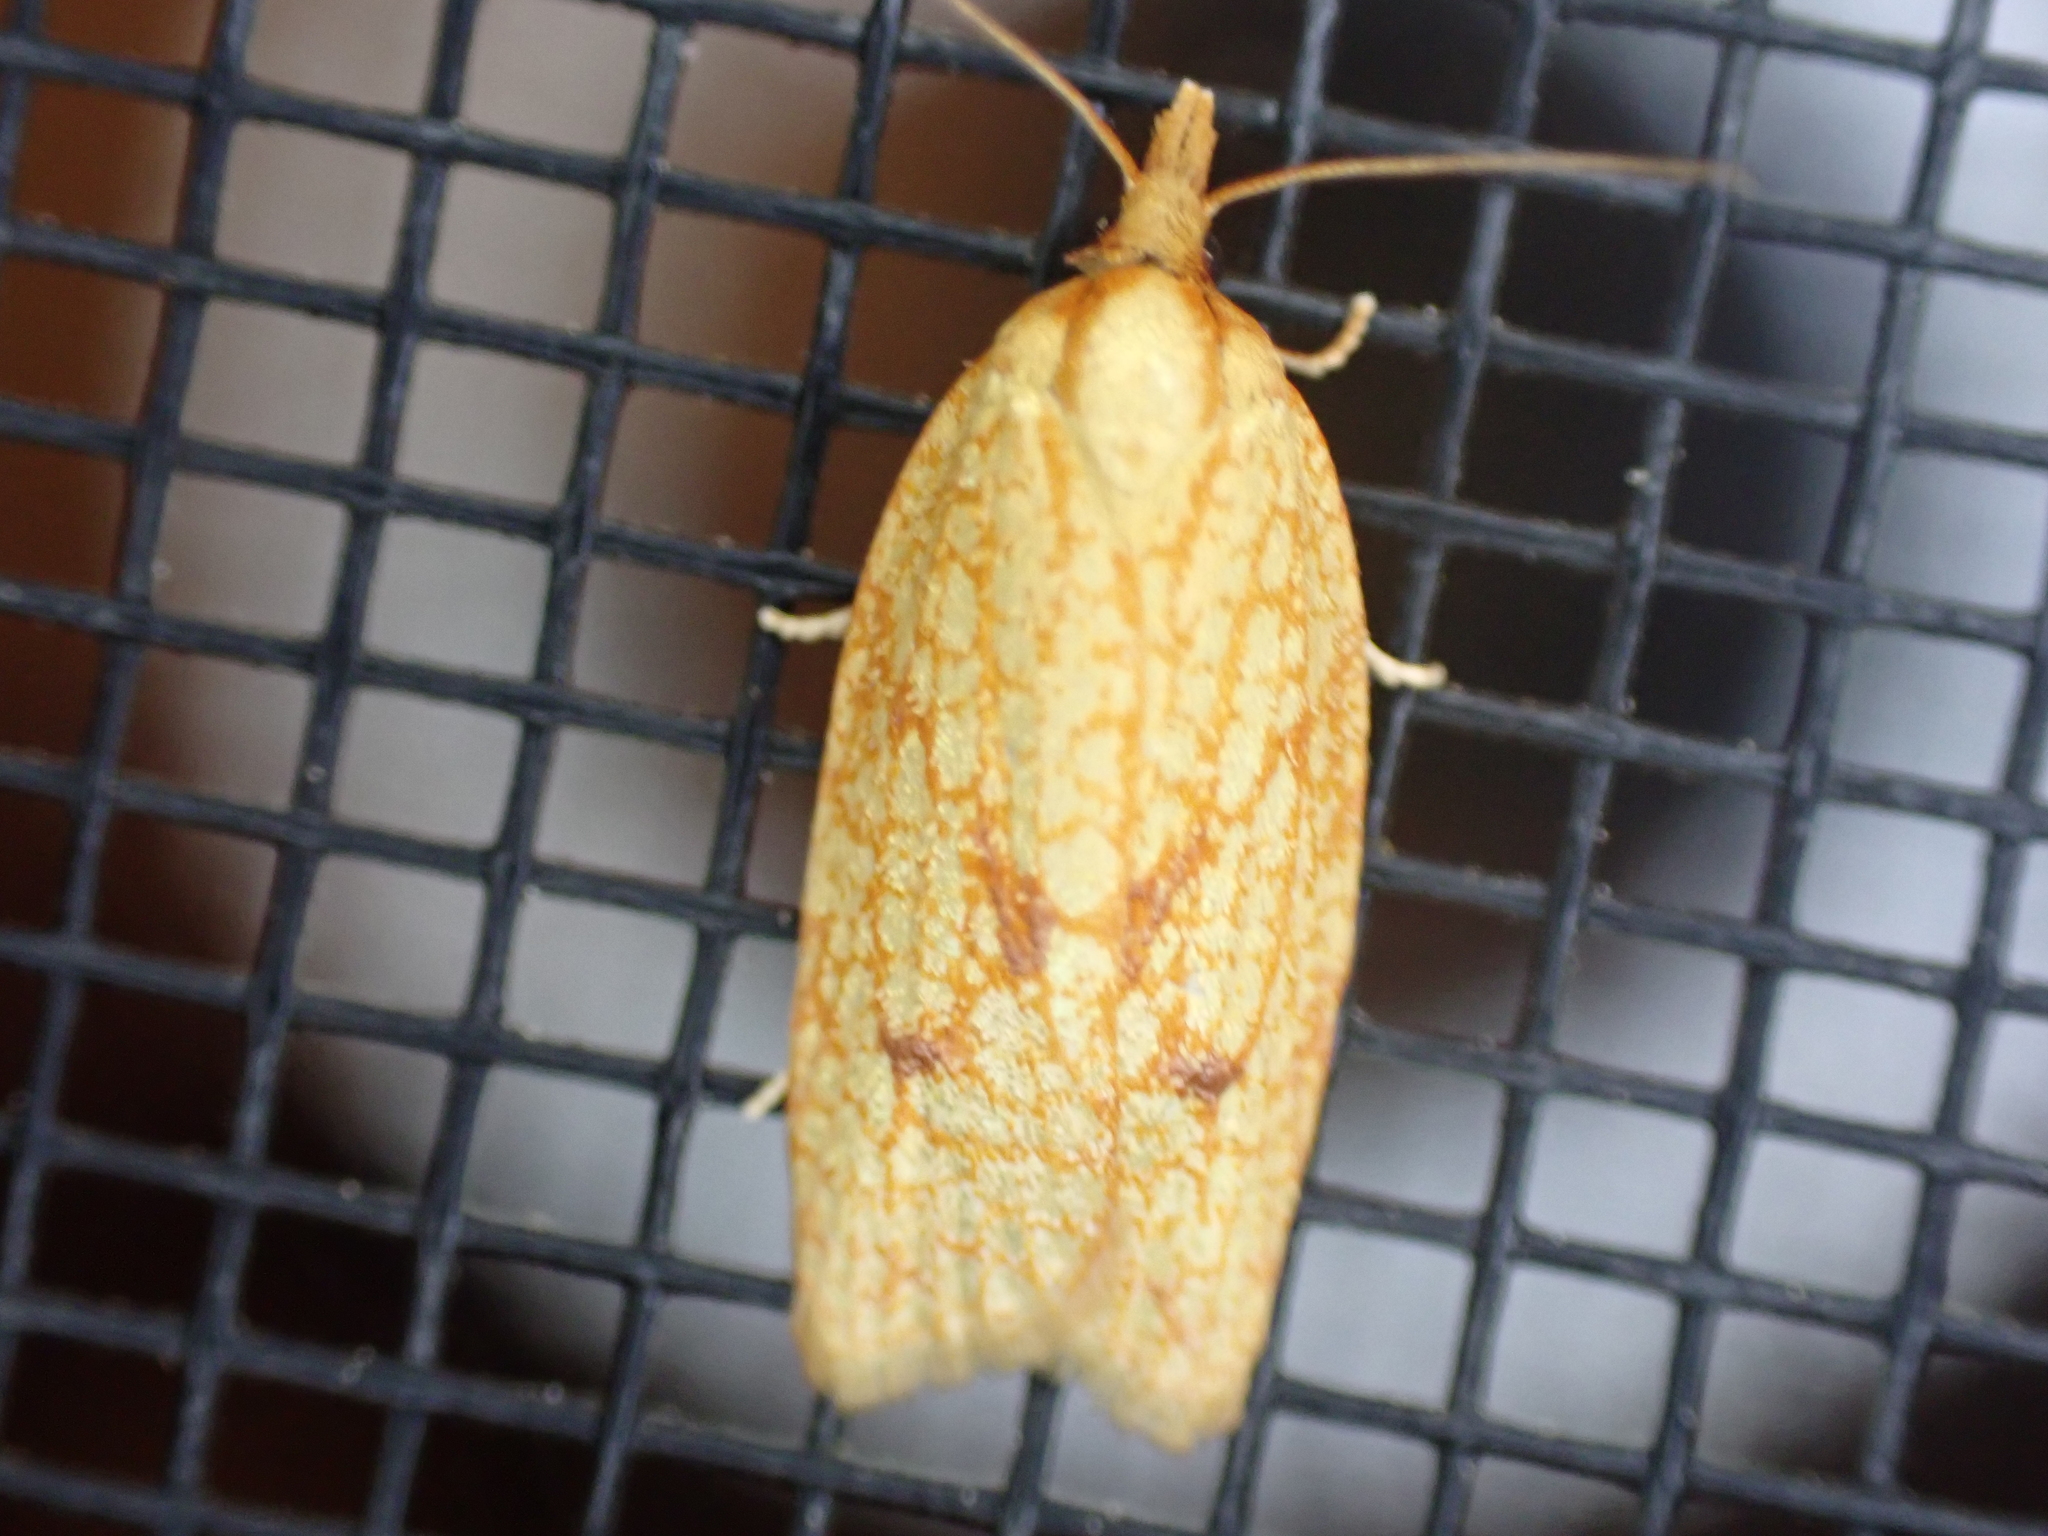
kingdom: Animalia
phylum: Arthropoda
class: Insecta
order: Lepidoptera
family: Tortricidae
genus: Sparganothis
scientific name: Sparganothis sulfureana
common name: Sparganothis fruitworm moth
